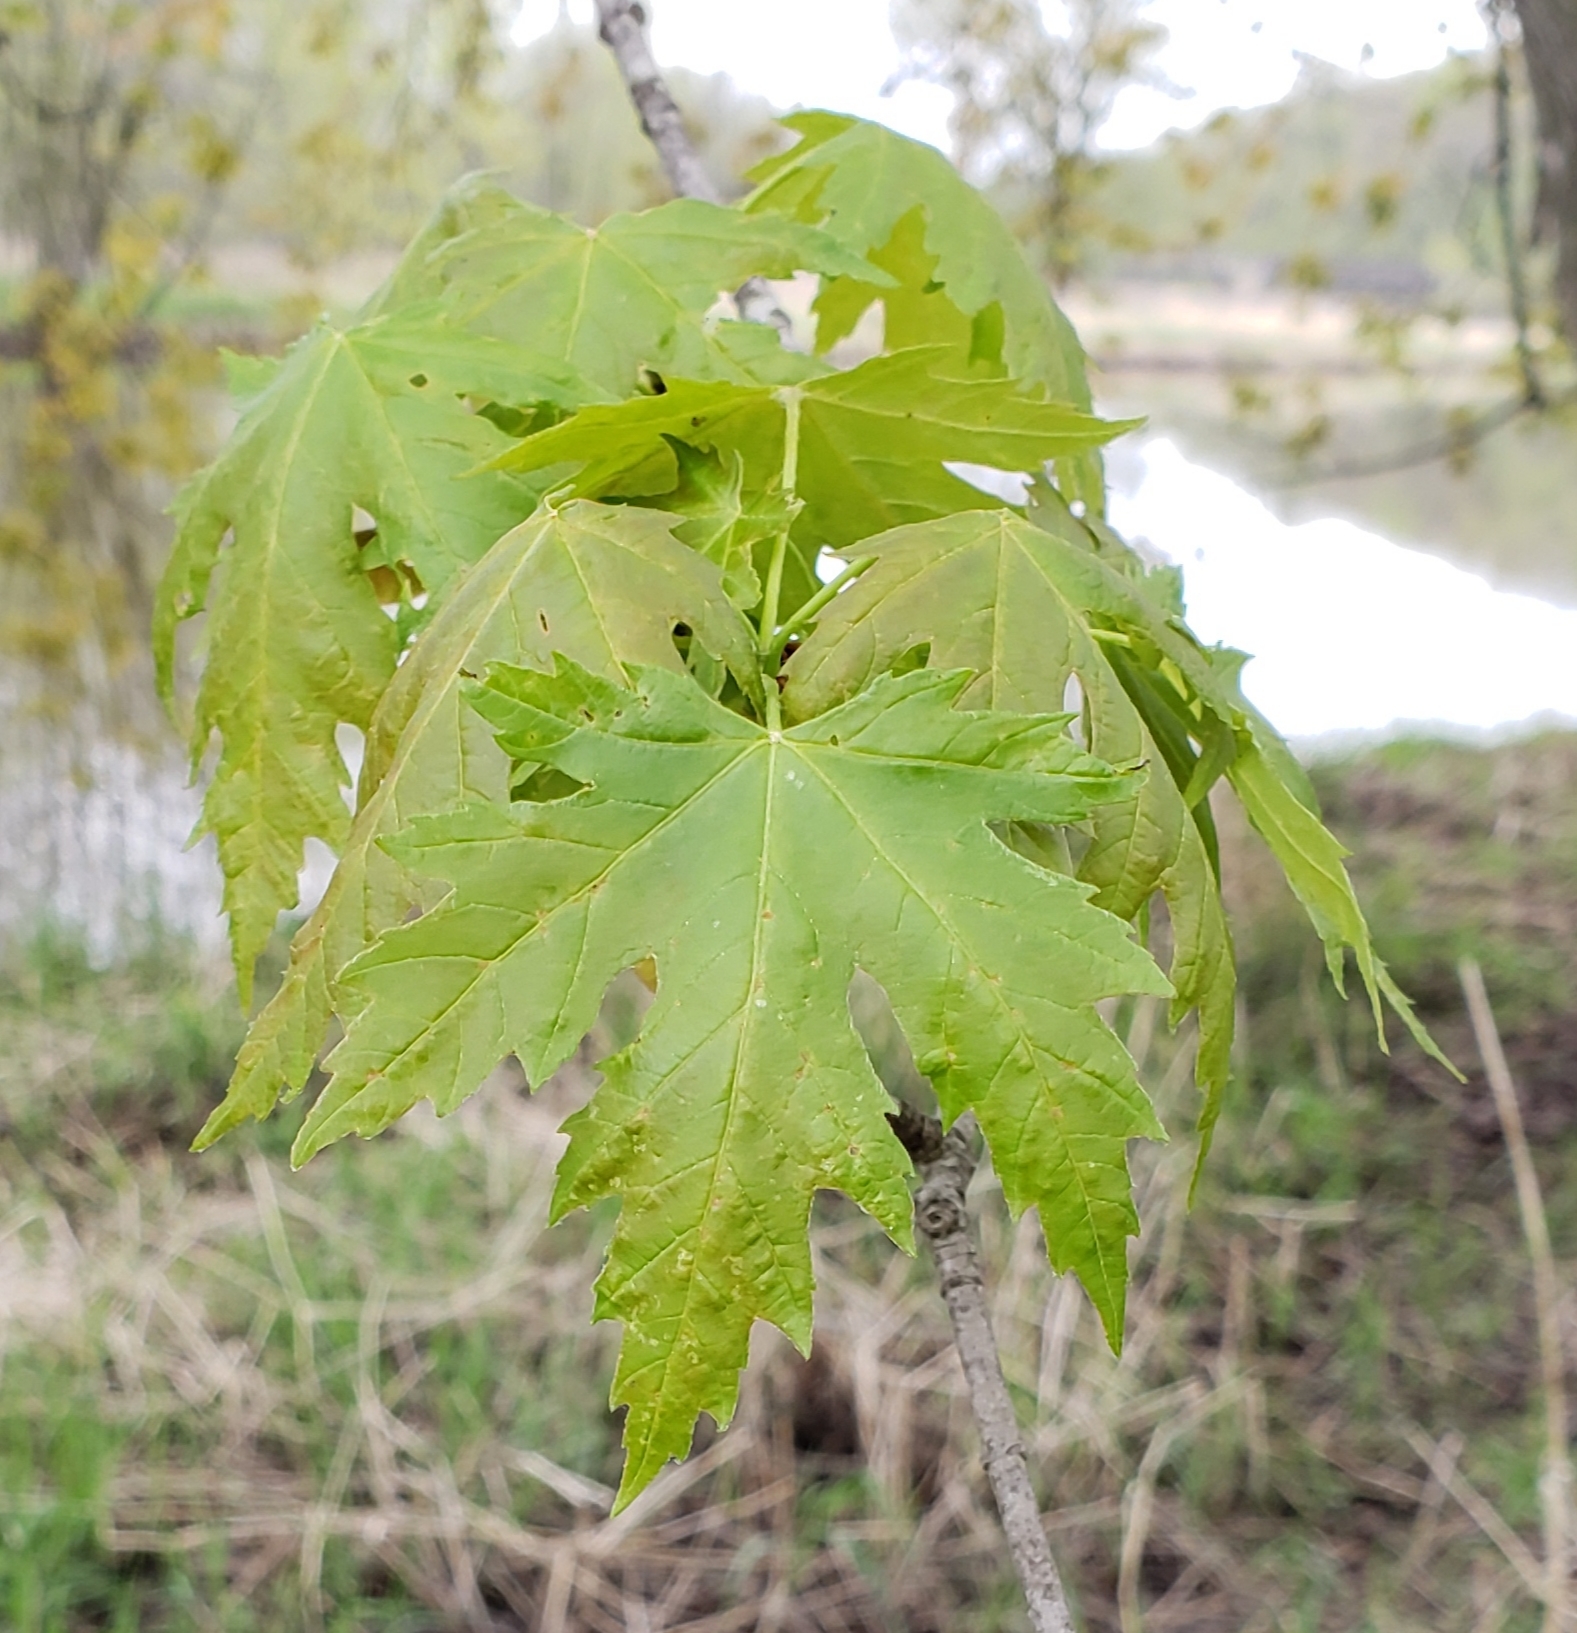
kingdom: Plantae
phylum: Tracheophyta
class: Magnoliopsida
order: Sapindales
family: Sapindaceae
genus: Acer
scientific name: Acer saccharinum
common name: Silver maple
